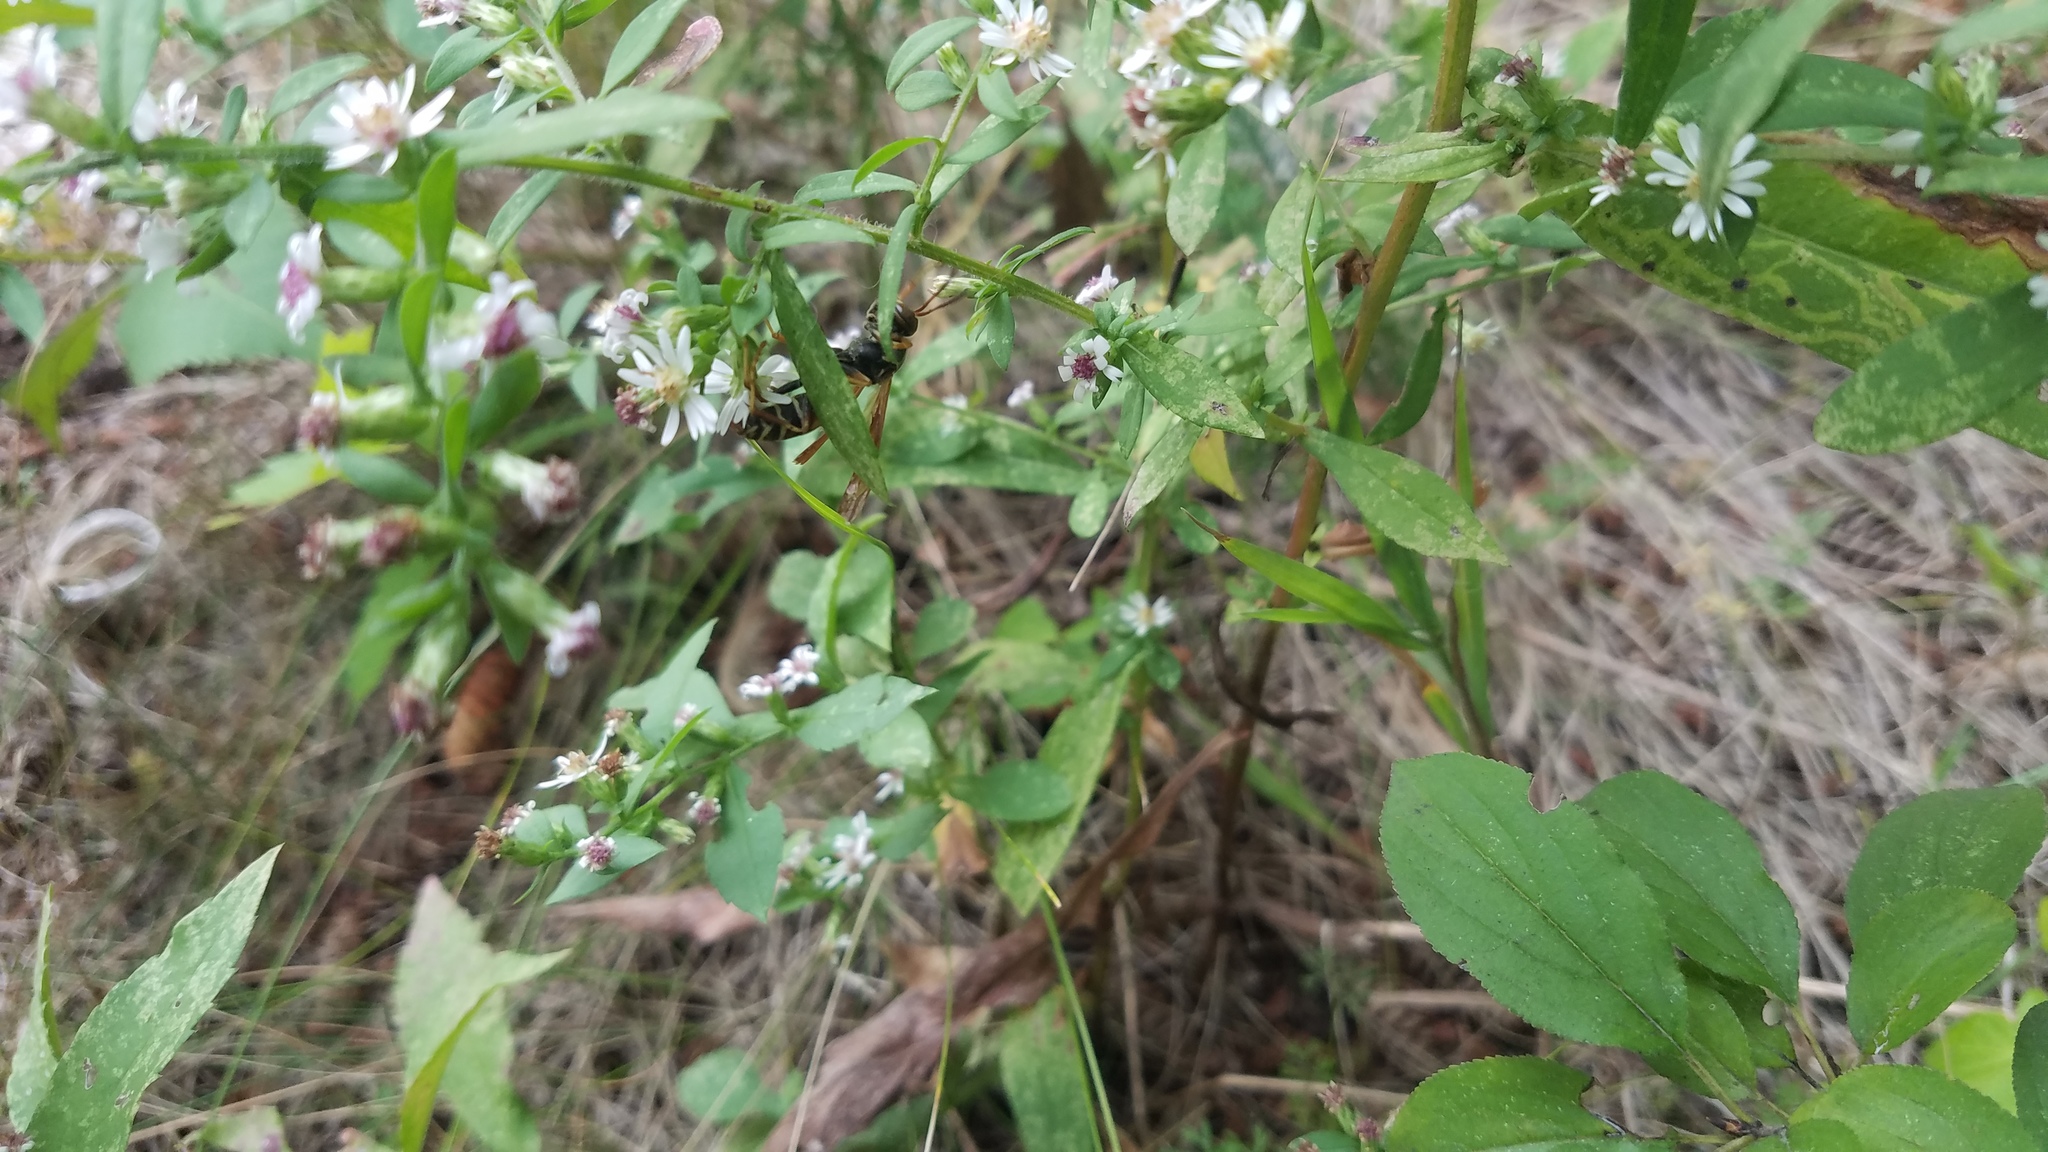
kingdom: Animalia
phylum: Arthropoda
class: Insecta
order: Hymenoptera
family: Eumenidae
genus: Polistes
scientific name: Polistes fuscatus
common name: Dark paper wasp
